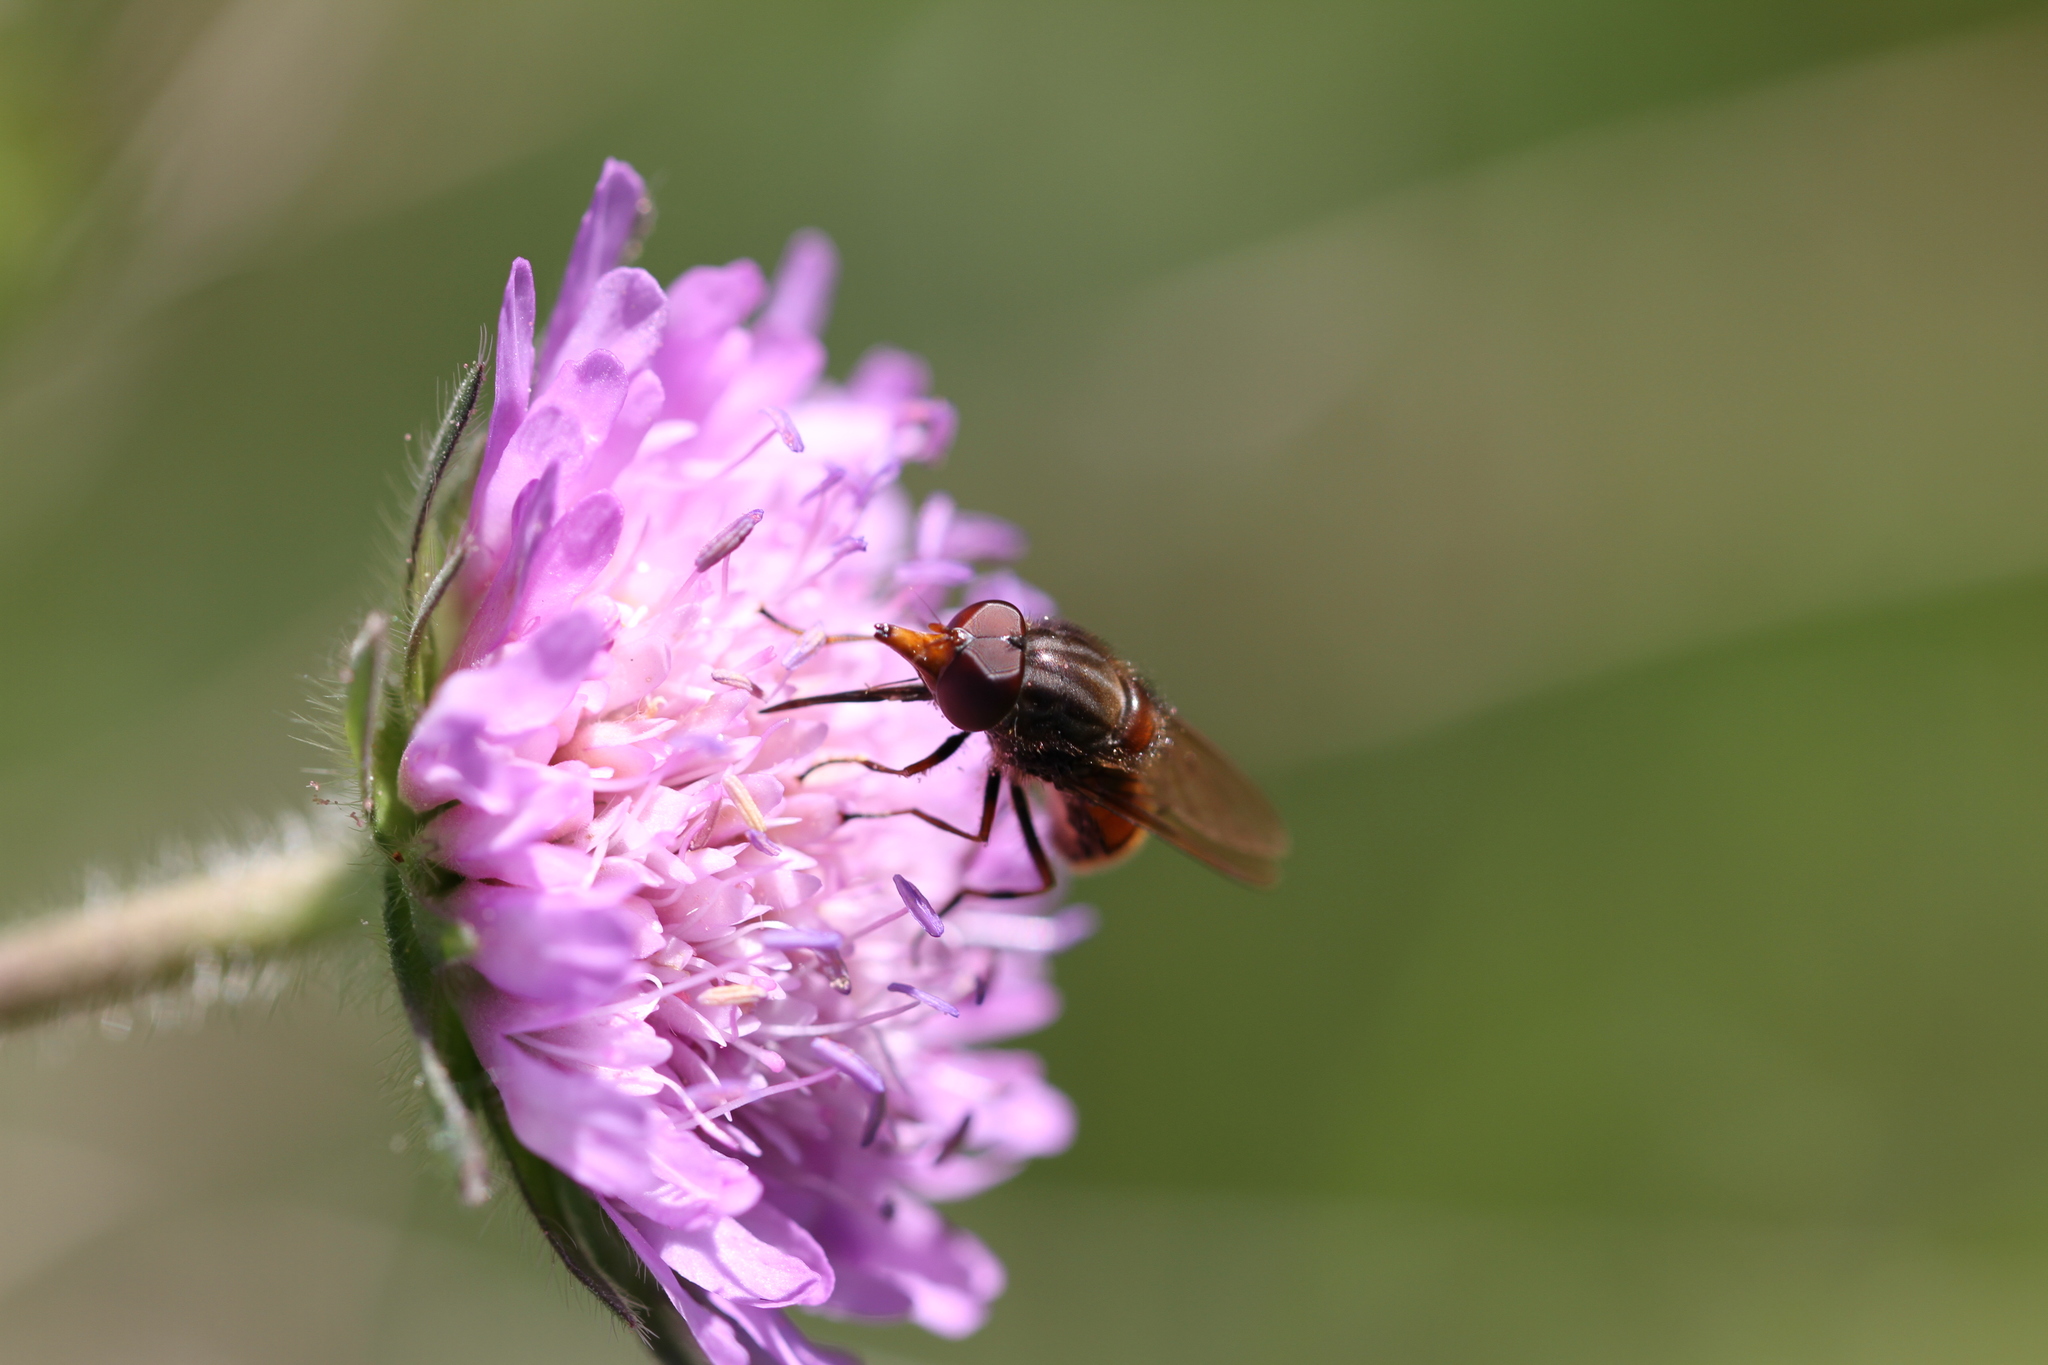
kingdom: Animalia
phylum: Arthropoda
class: Insecta
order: Diptera
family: Syrphidae
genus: Rhingia
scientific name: Rhingia campestris
